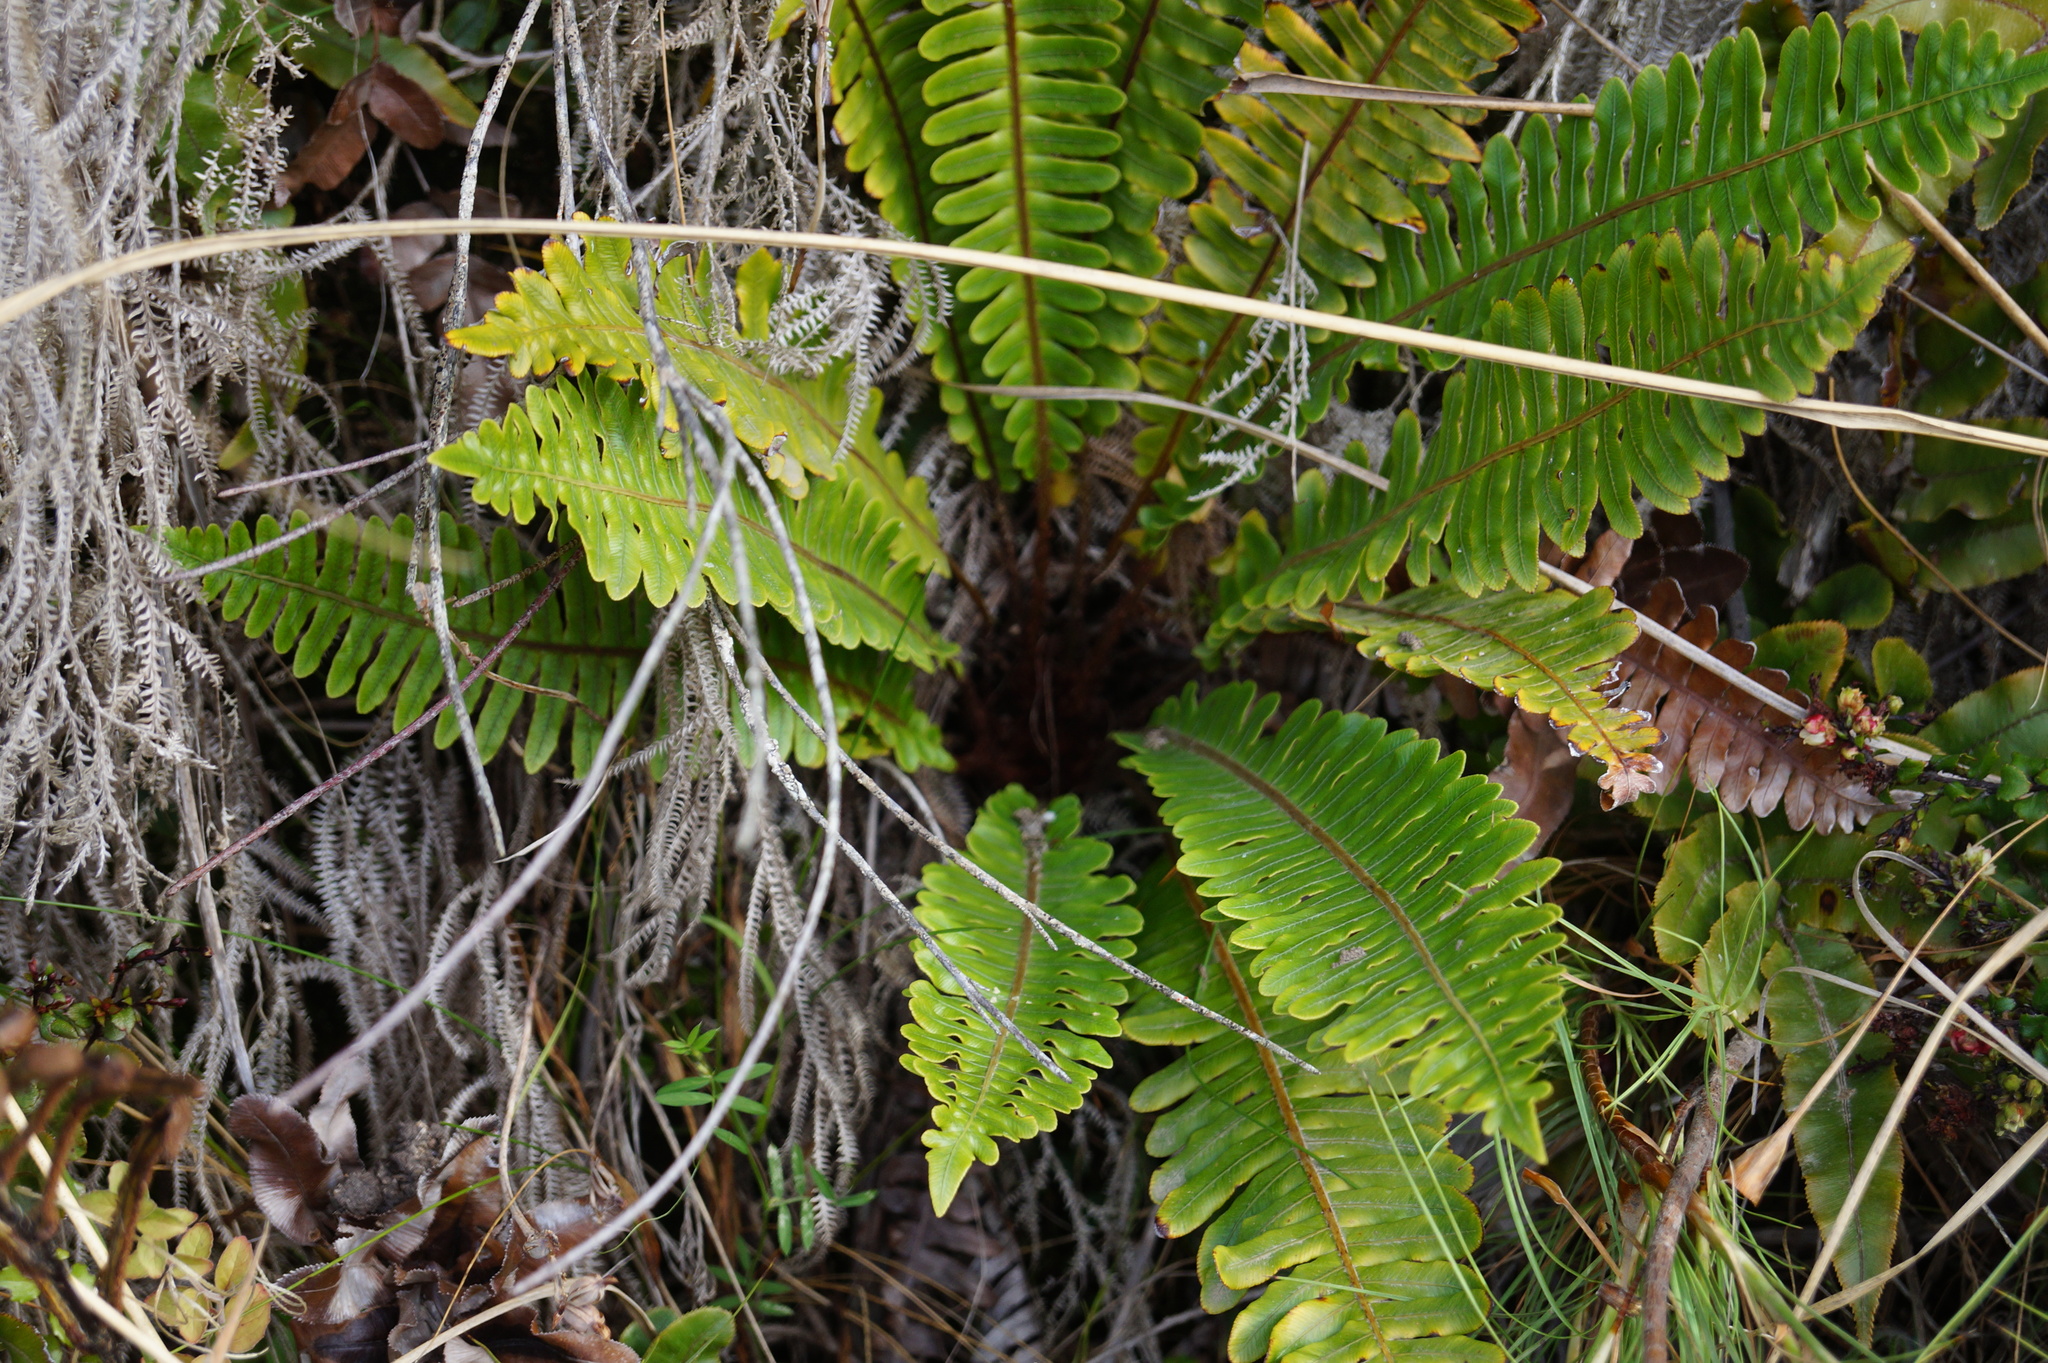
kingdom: Plantae
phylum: Tracheophyta
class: Polypodiopsida
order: Polypodiales
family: Blechnaceae
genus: Lomaria
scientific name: Lomaria discolor
